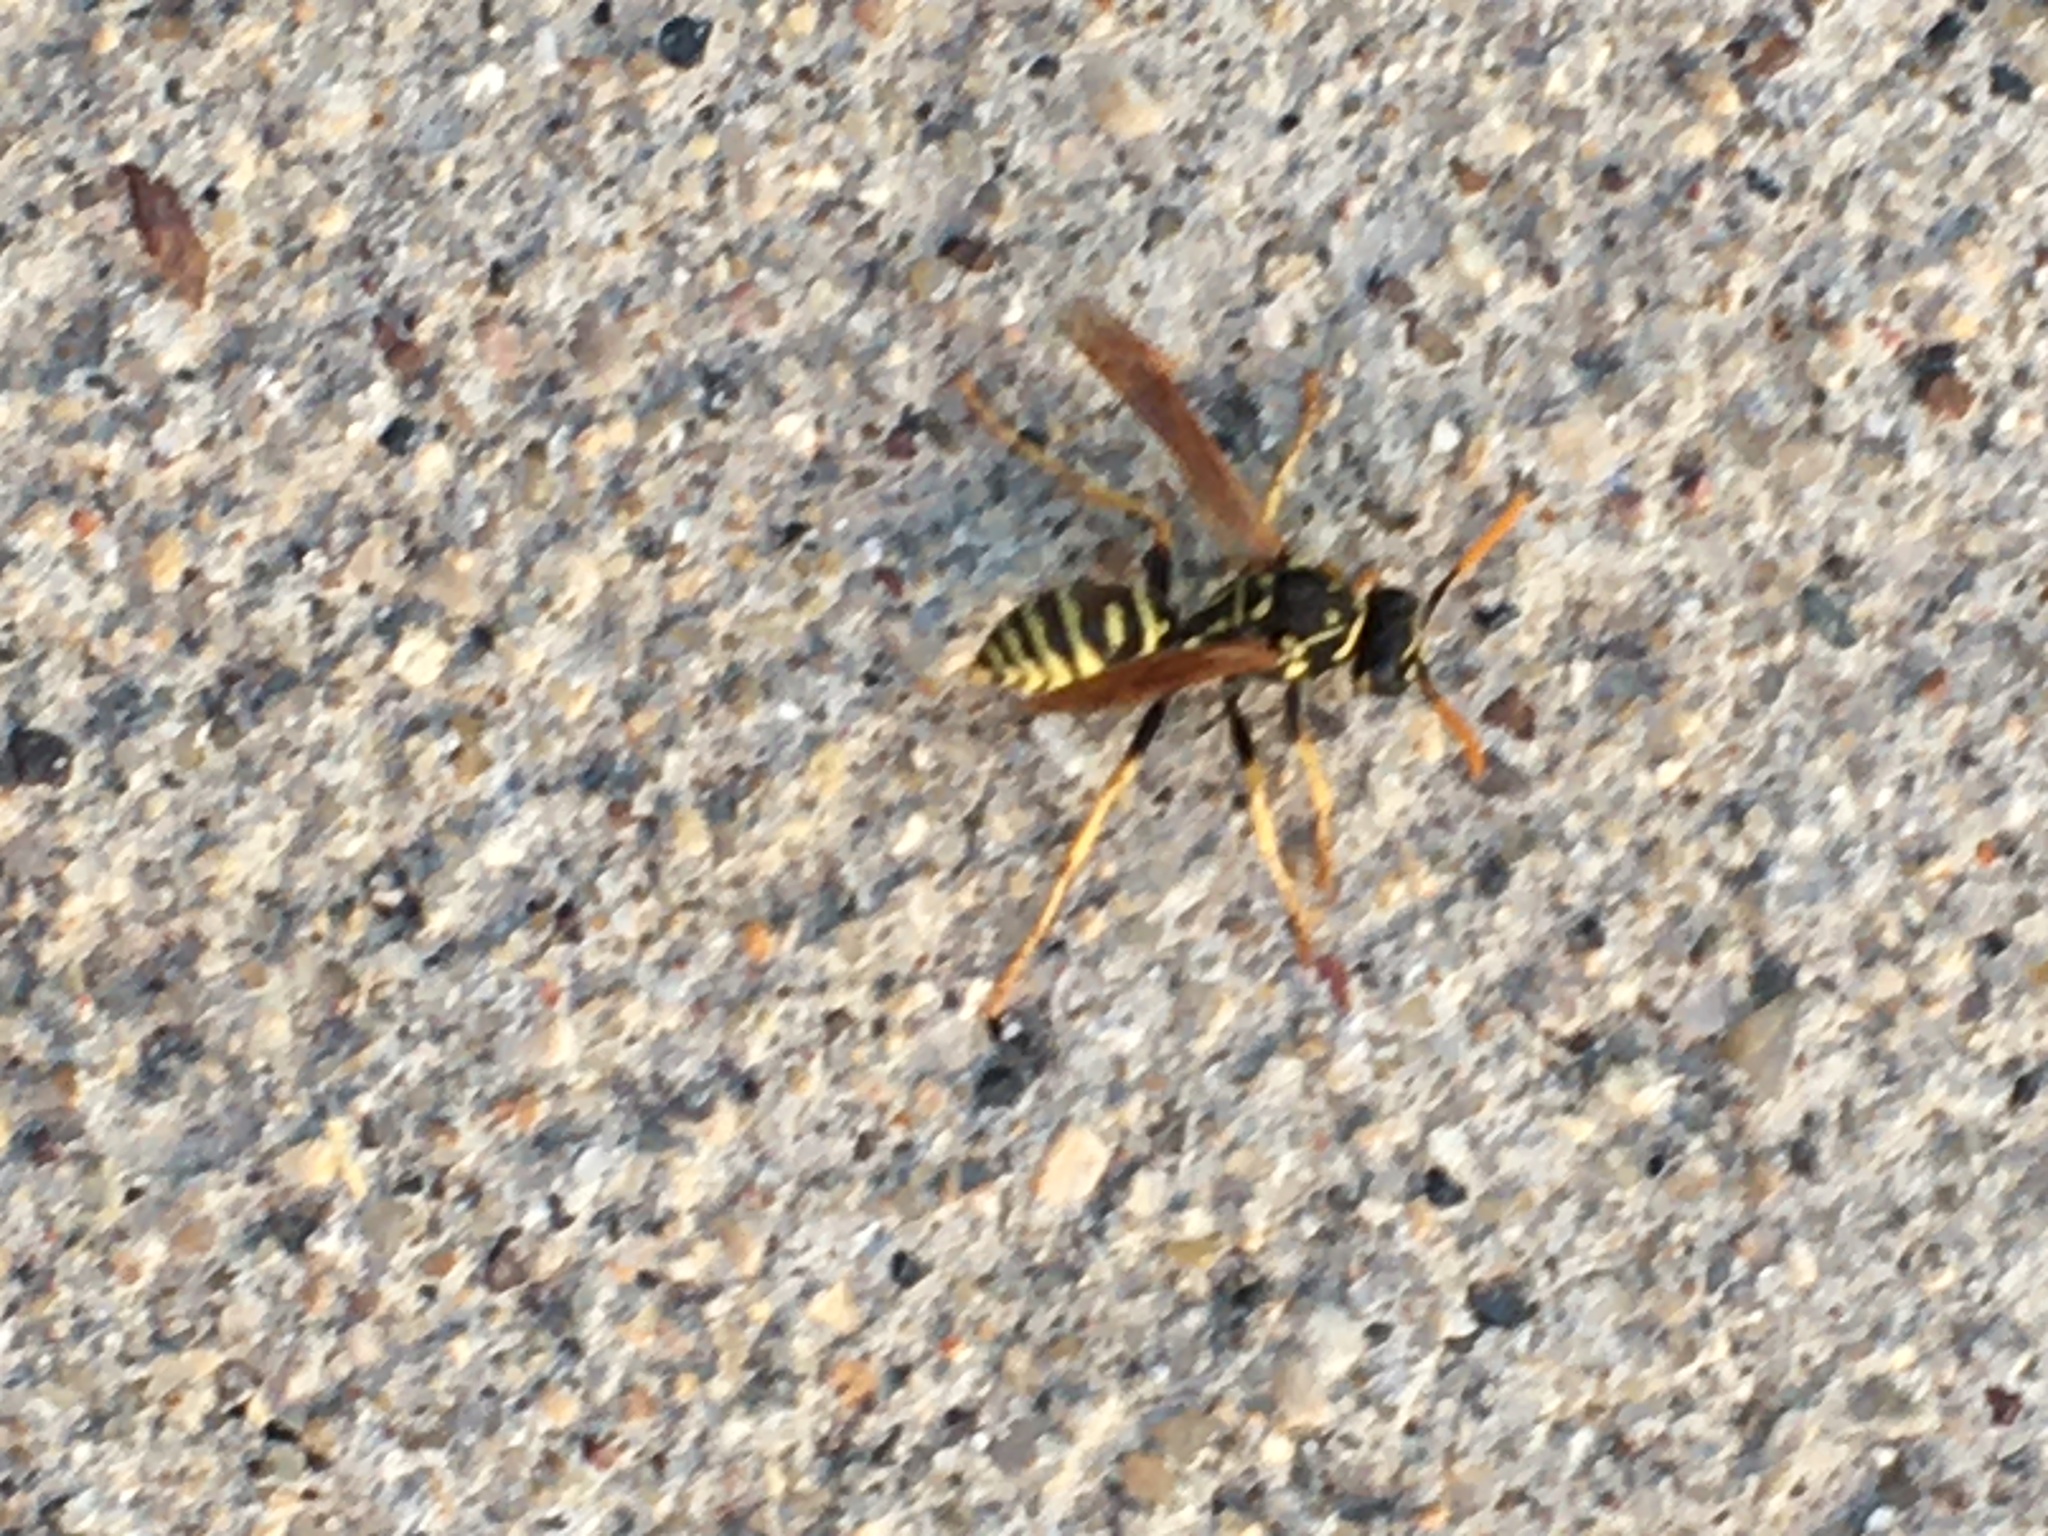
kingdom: Animalia
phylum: Arthropoda
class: Insecta
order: Hymenoptera
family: Eumenidae
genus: Polistes
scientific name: Polistes dominula
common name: Paper wasp
